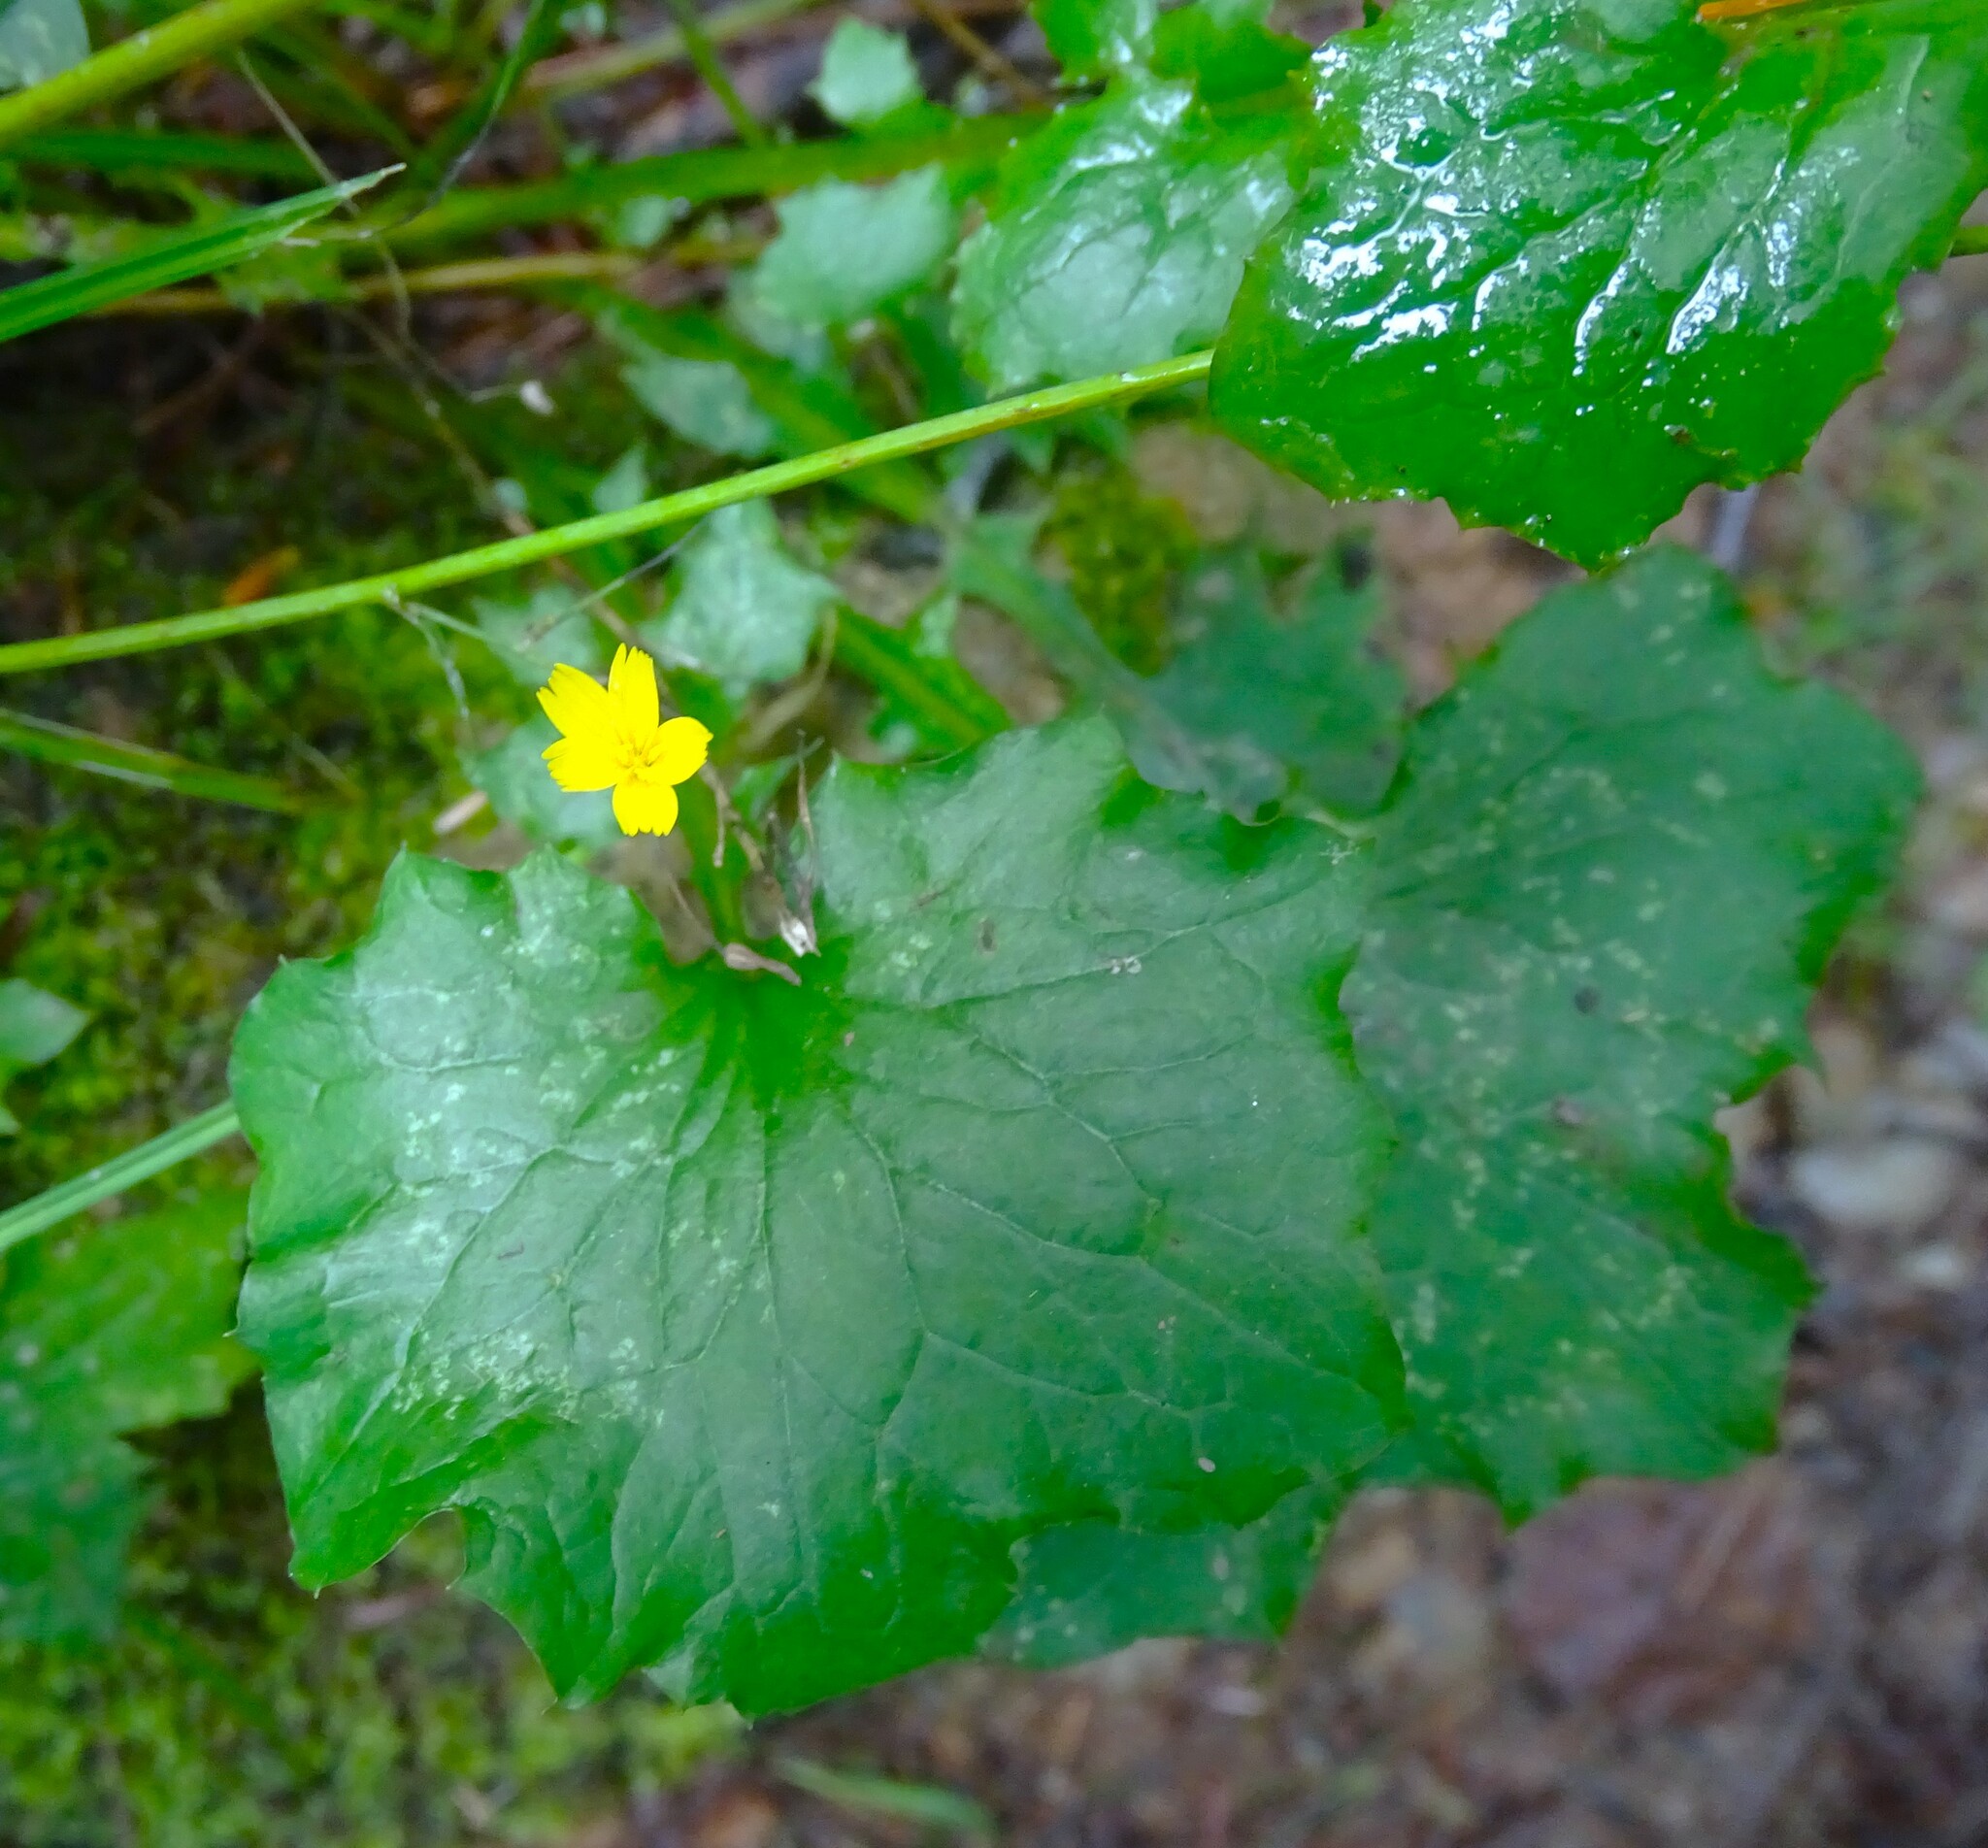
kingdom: Plantae
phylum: Tracheophyta
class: Magnoliopsida
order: Asterales
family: Asteraceae
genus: Mycelis
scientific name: Mycelis muralis
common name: Wall lettuce
